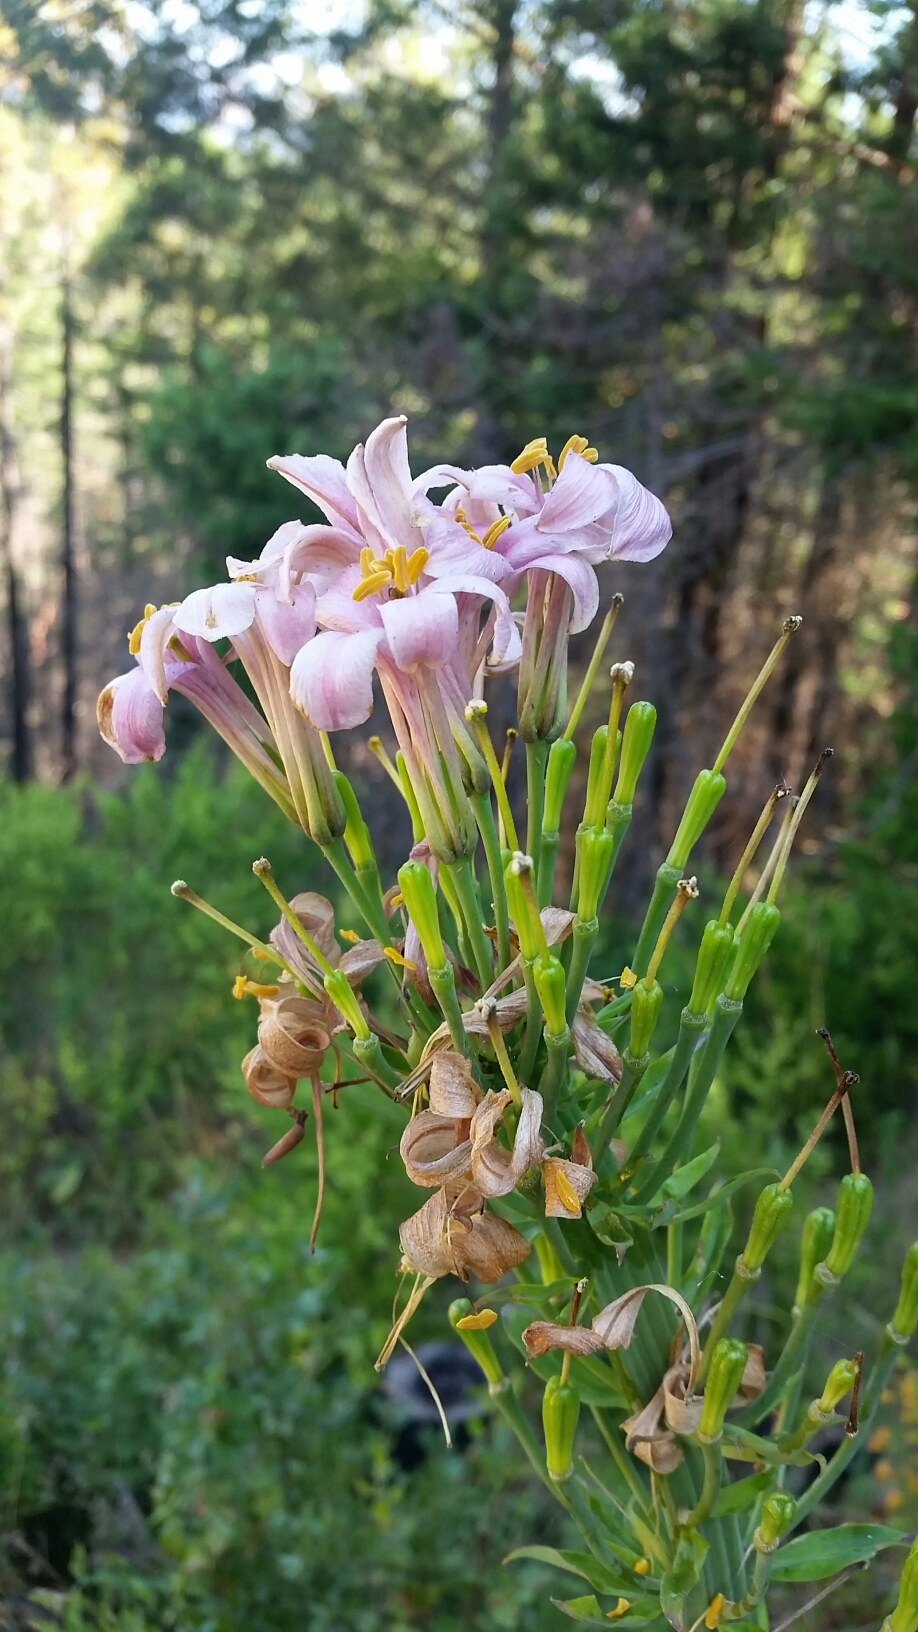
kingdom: Plantae
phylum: Tracheophyta
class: Liliopsida
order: Liliales
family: Liliaceae
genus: Lilium
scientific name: Lilium rubescens
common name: Chamise lily
